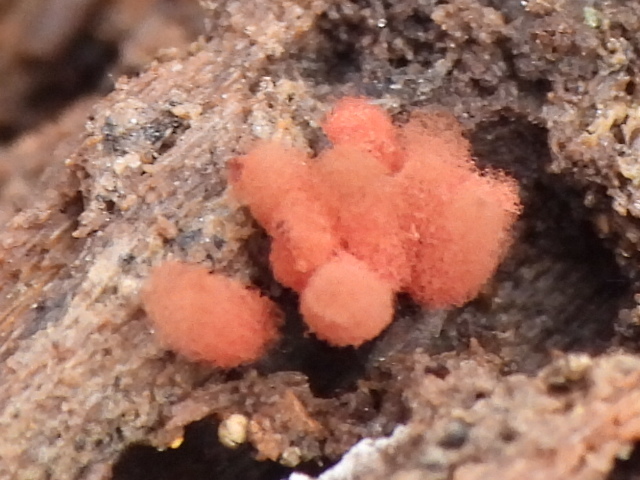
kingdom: Protozoa
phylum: Mycetozoa
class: Myxomycetes
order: Trichiales
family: Arcyriaceae
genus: Arcyria
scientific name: Arcyria denudata
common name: Carnival candy slime mold
